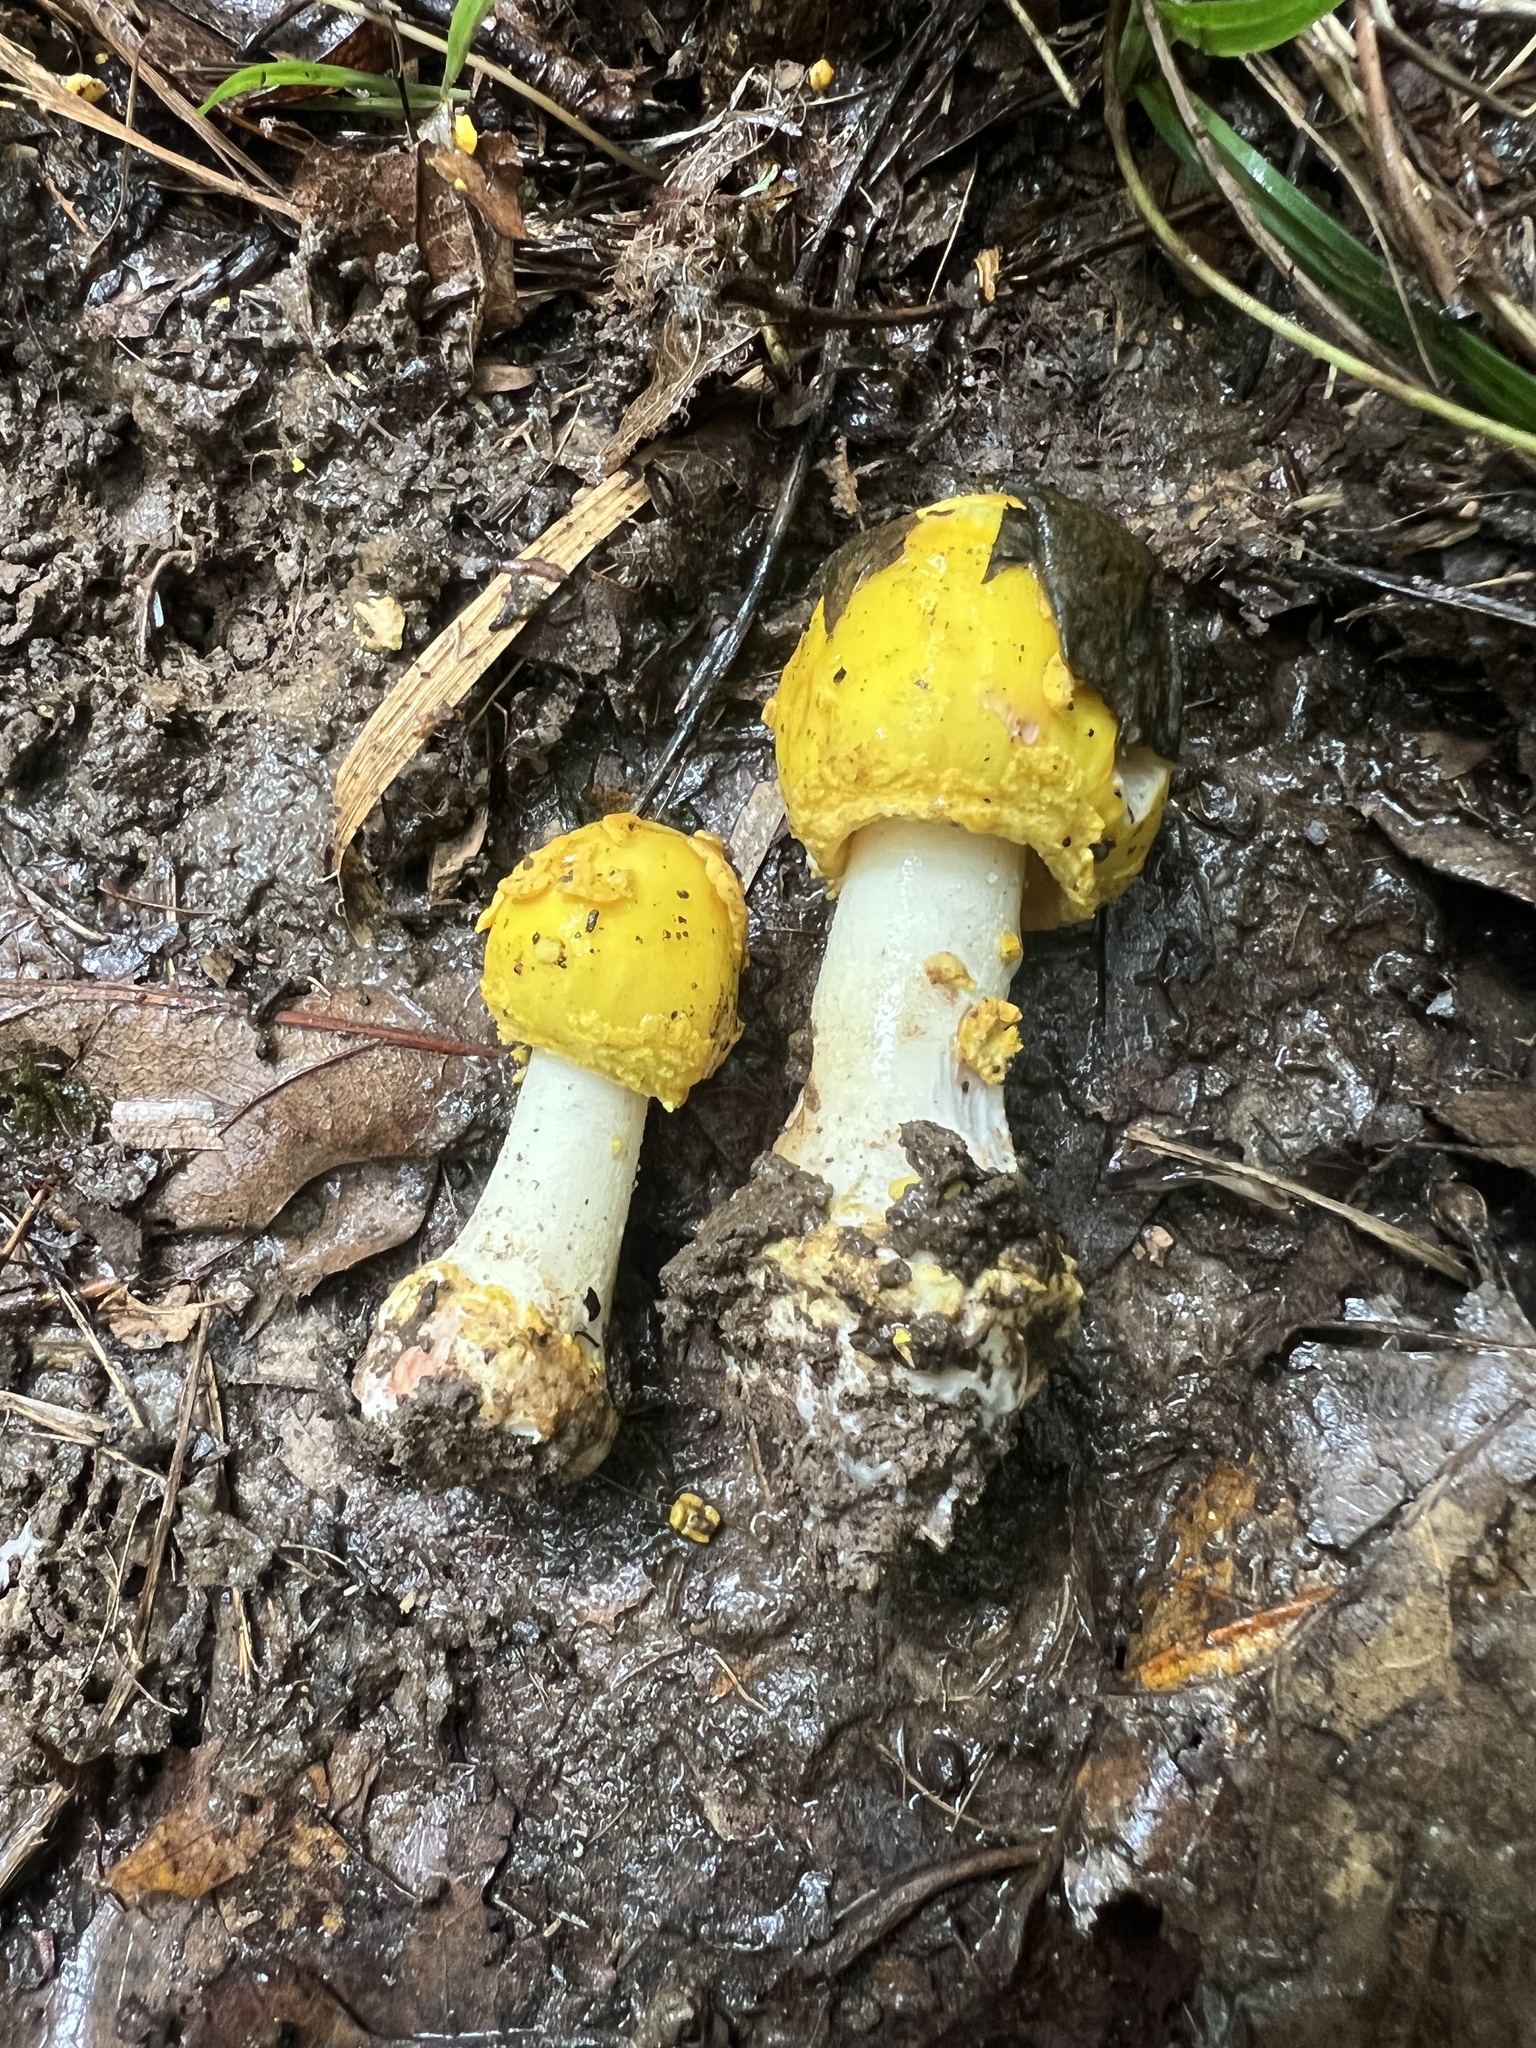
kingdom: Fungi
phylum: Basidiomycota
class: Agaricomycetes
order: Agaricales
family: Amanitaceae
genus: Amanita
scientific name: Amanita flavorubens
